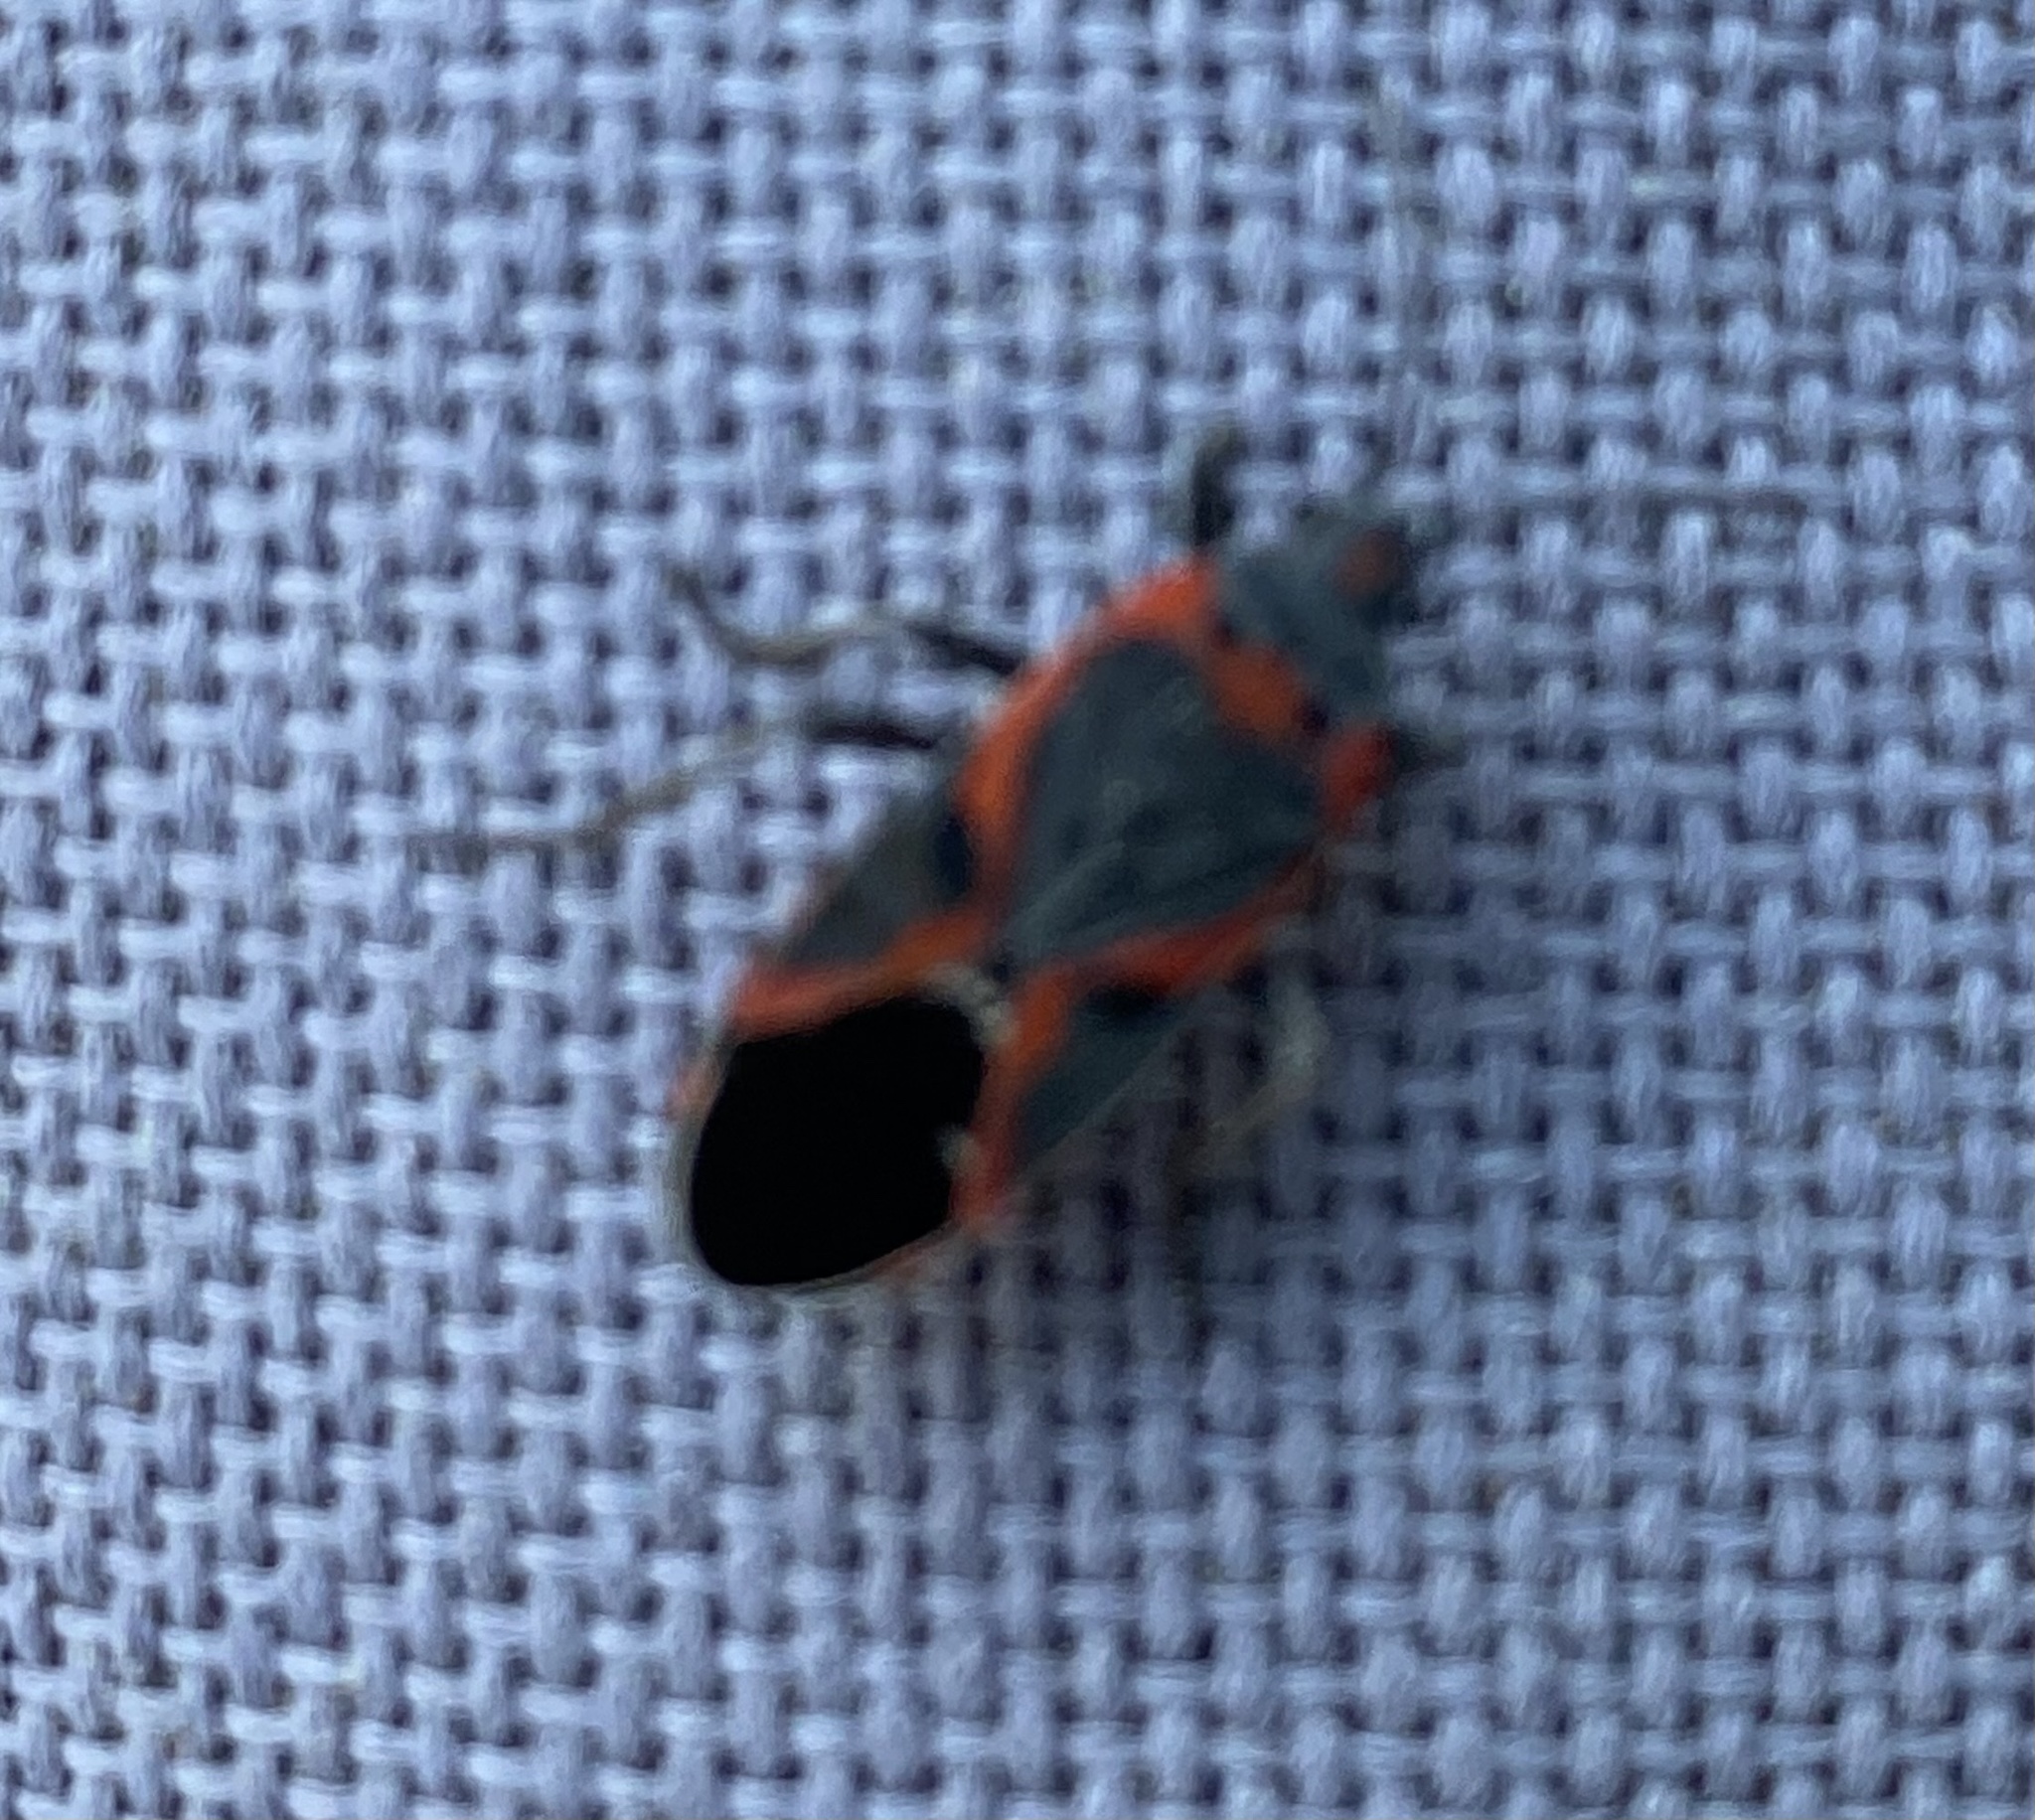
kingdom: Animalia
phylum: Arthropoda
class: Insecta
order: Hemiptera
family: Lygaeidae
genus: Lygaeus
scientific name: Lygaeus kalmii
